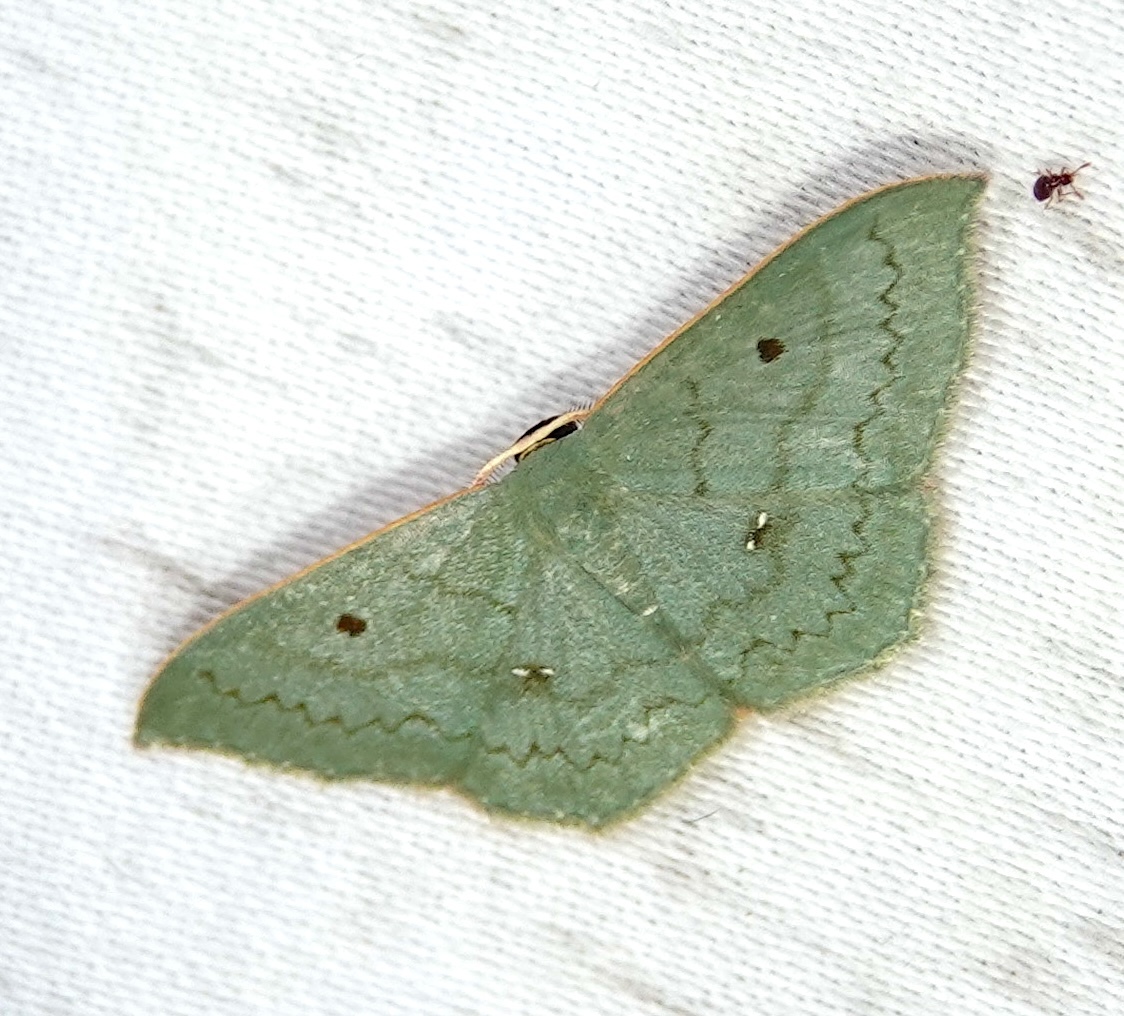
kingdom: Animalia
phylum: Arthropoda
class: Insecta
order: Lepidoptera
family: Geometridae
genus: Dithecodes
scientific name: Dithecodes herbuloti
